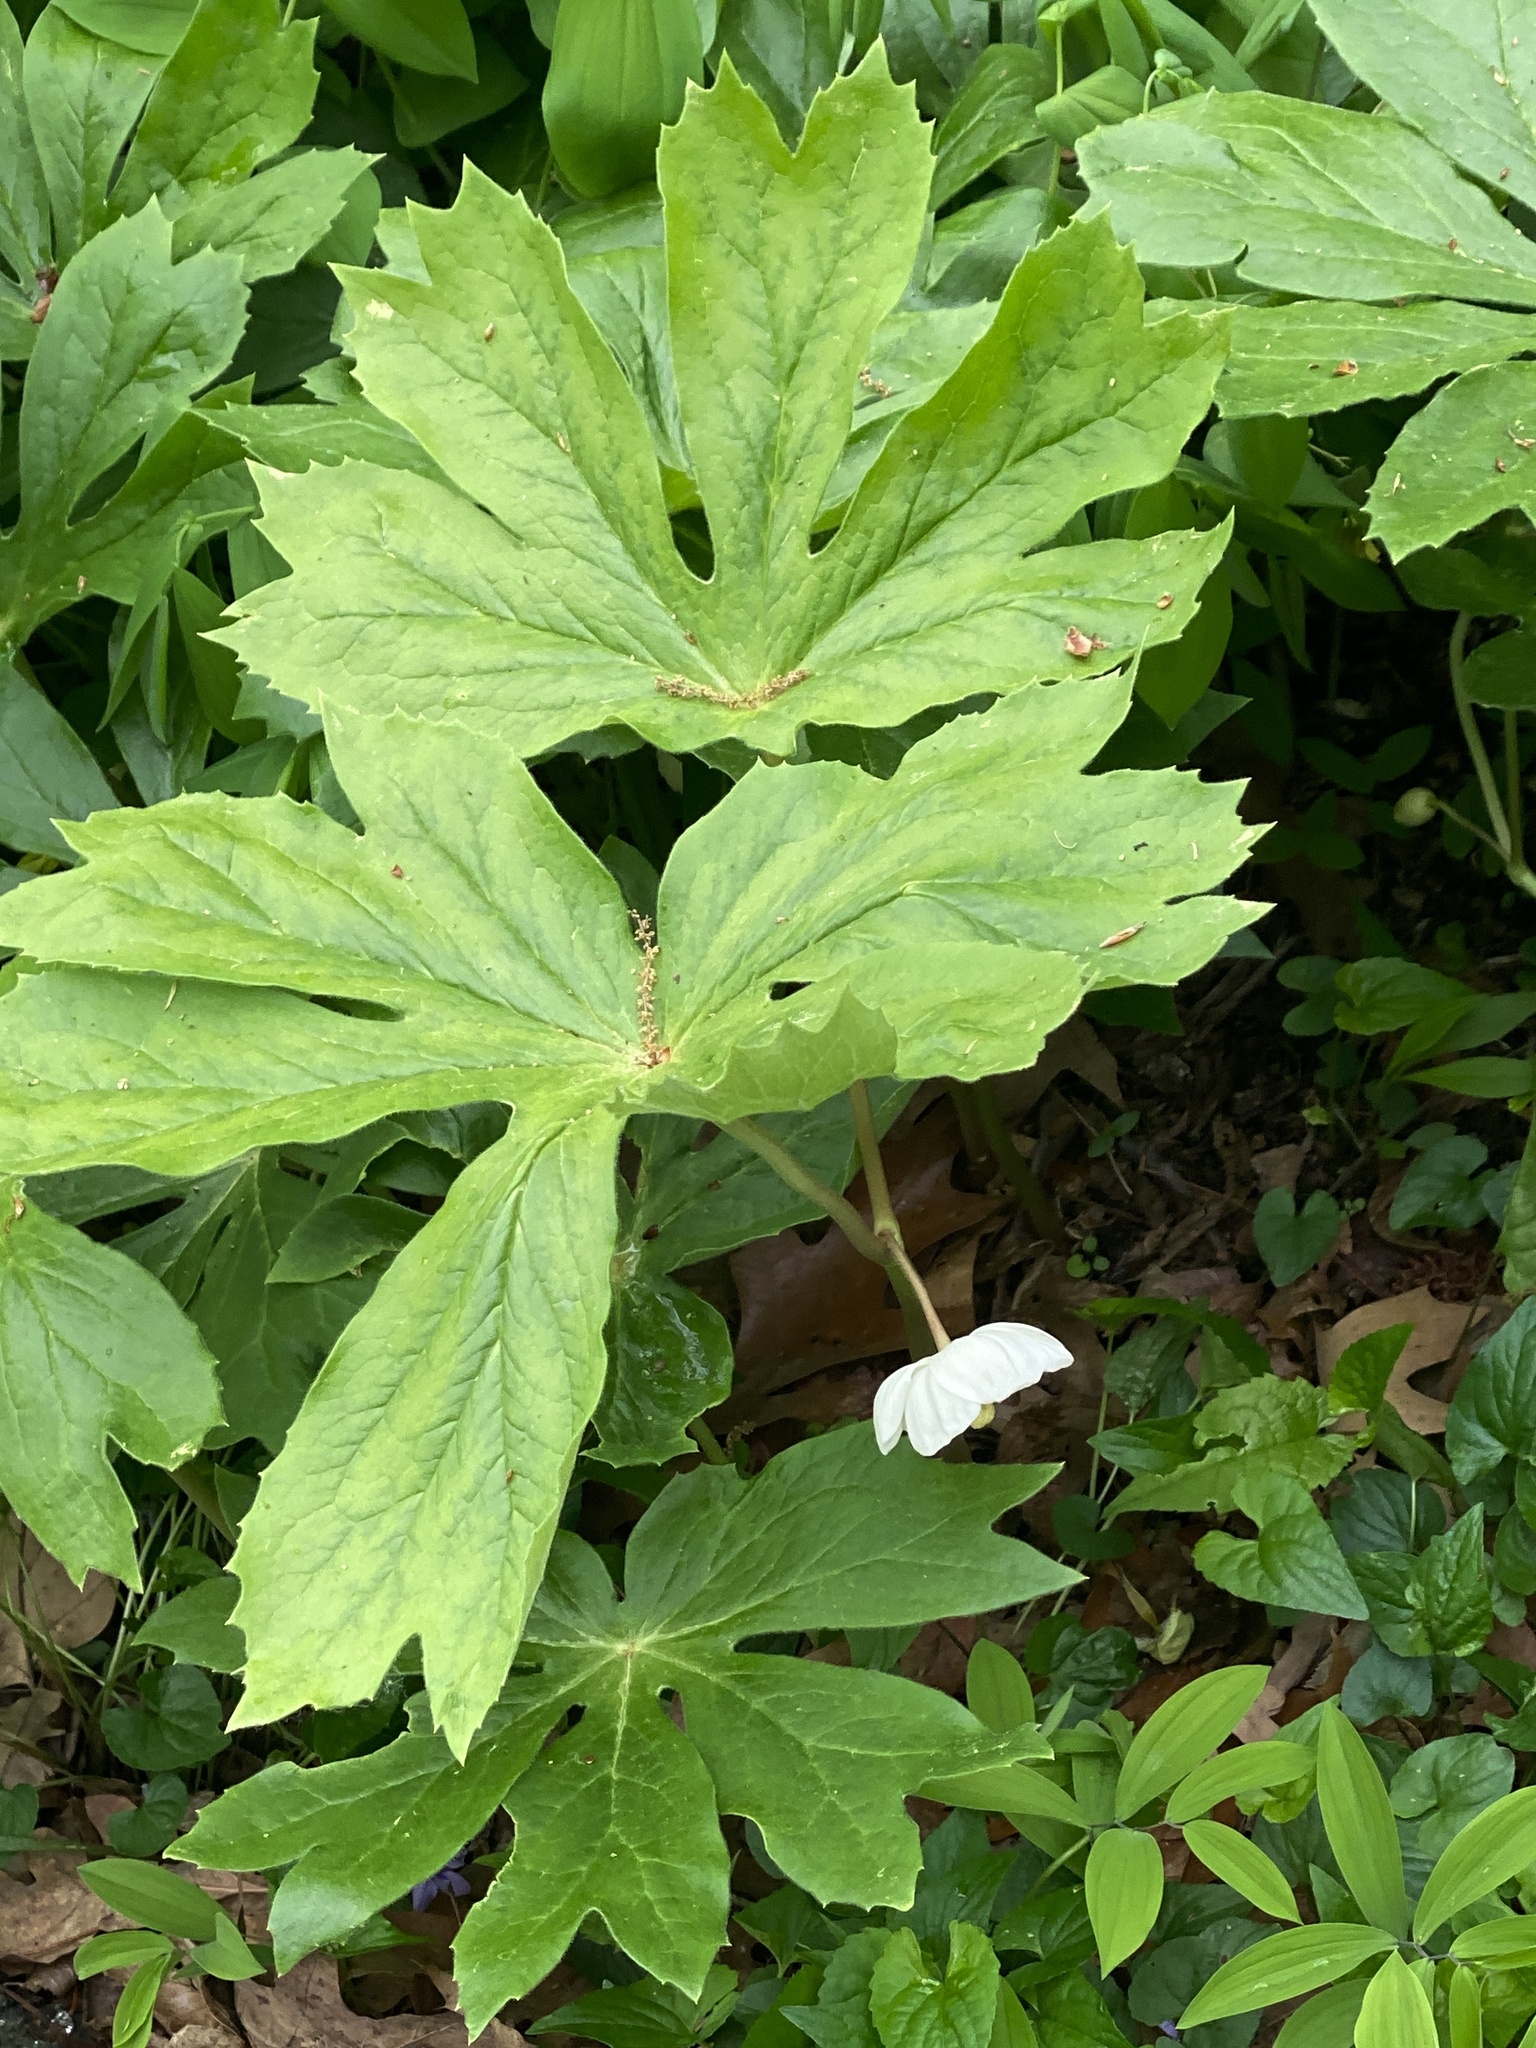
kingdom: Plantae
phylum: Tracheophyta
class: Magnoliopsida
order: Ranunculales
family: Berberidaceae
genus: Podophyllum
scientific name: Podophyllum peltatum
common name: Wild mandrake
